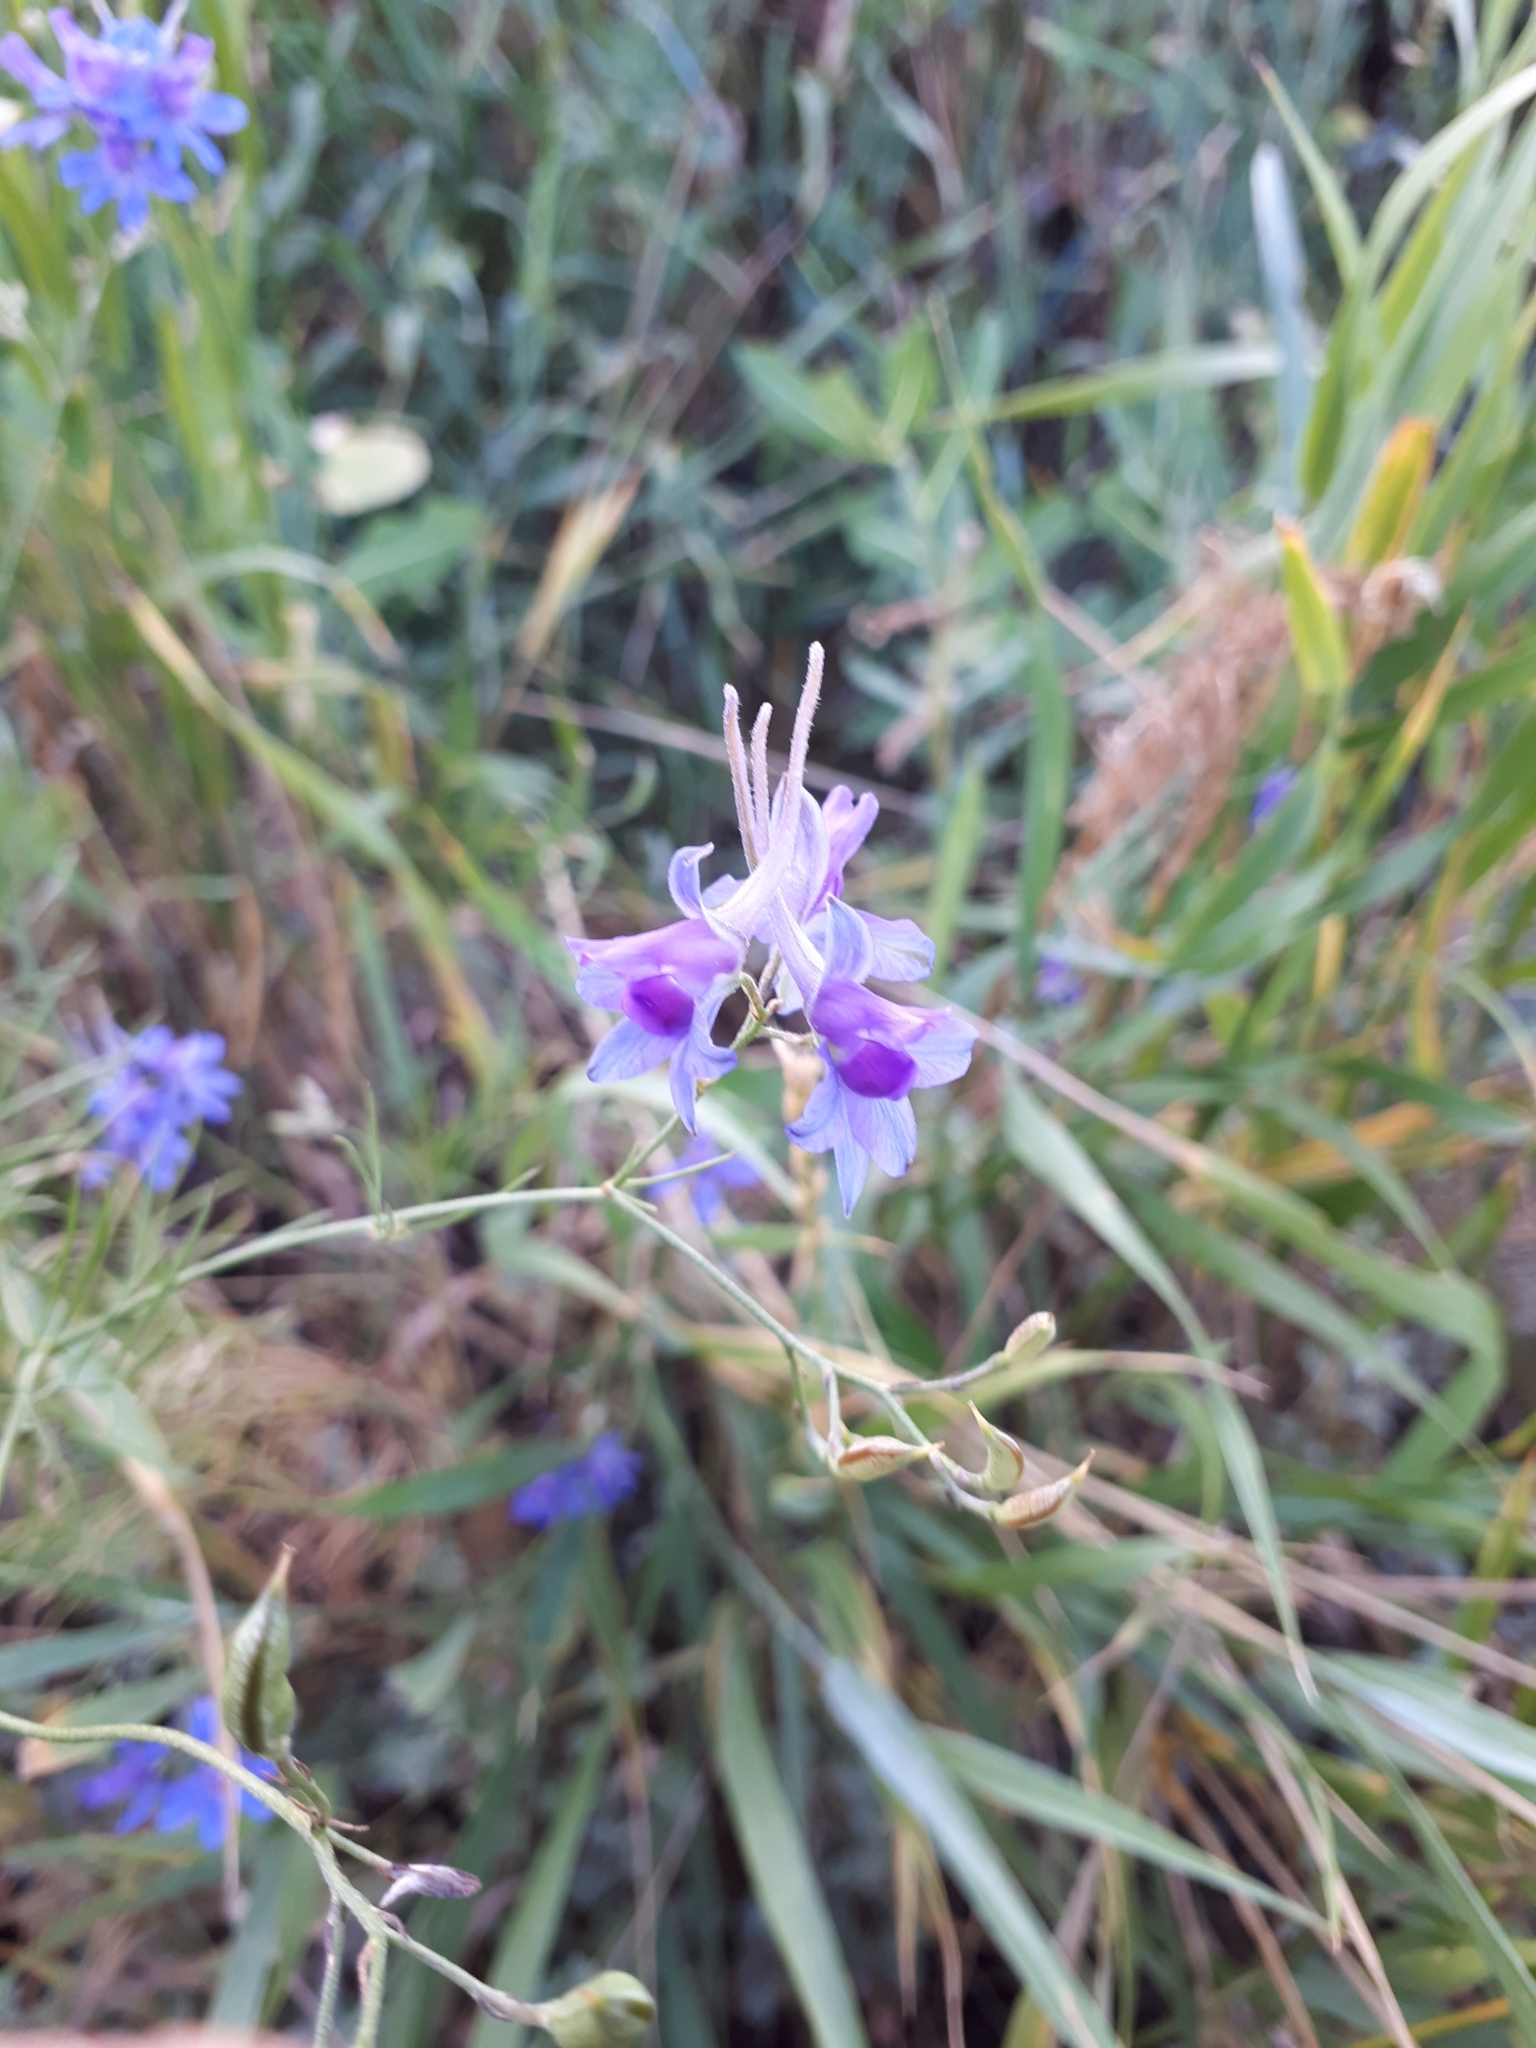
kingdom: Plantae
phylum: Tracheophyta
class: Magnoliopsida
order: Ranunculales
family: Ranunculaceae
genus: Delphinium
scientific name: Delphinium consolida
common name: Branching larkspur
